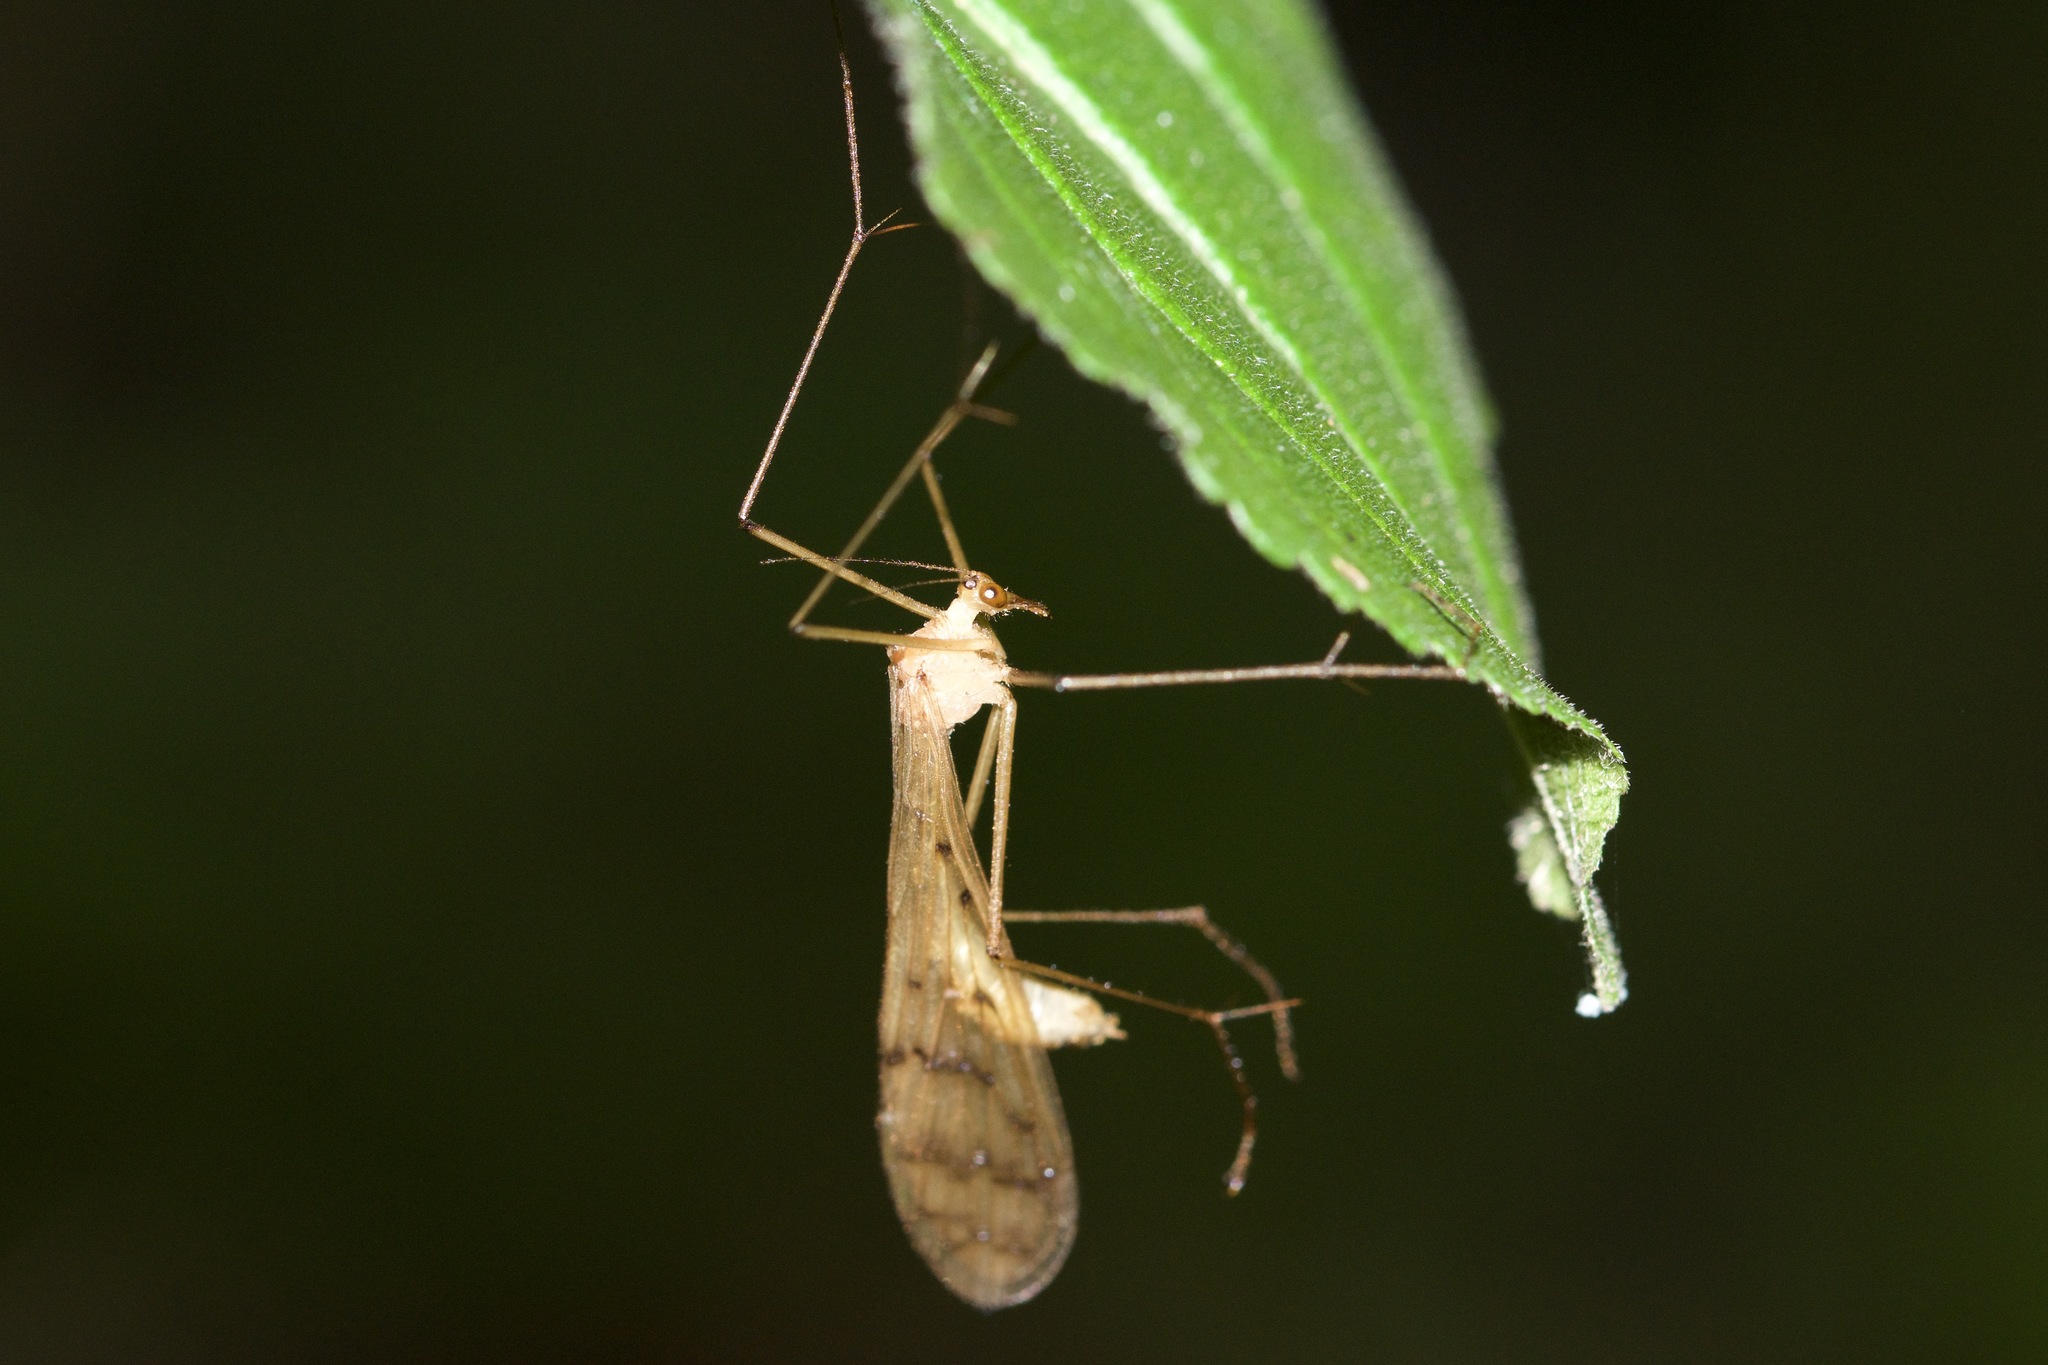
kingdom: Animalia
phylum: Arthropoda
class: Insecta
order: Mecoptera
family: Bittacidae
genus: Bittacus
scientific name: Bittacus strigosus
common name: Thin hangingfly
